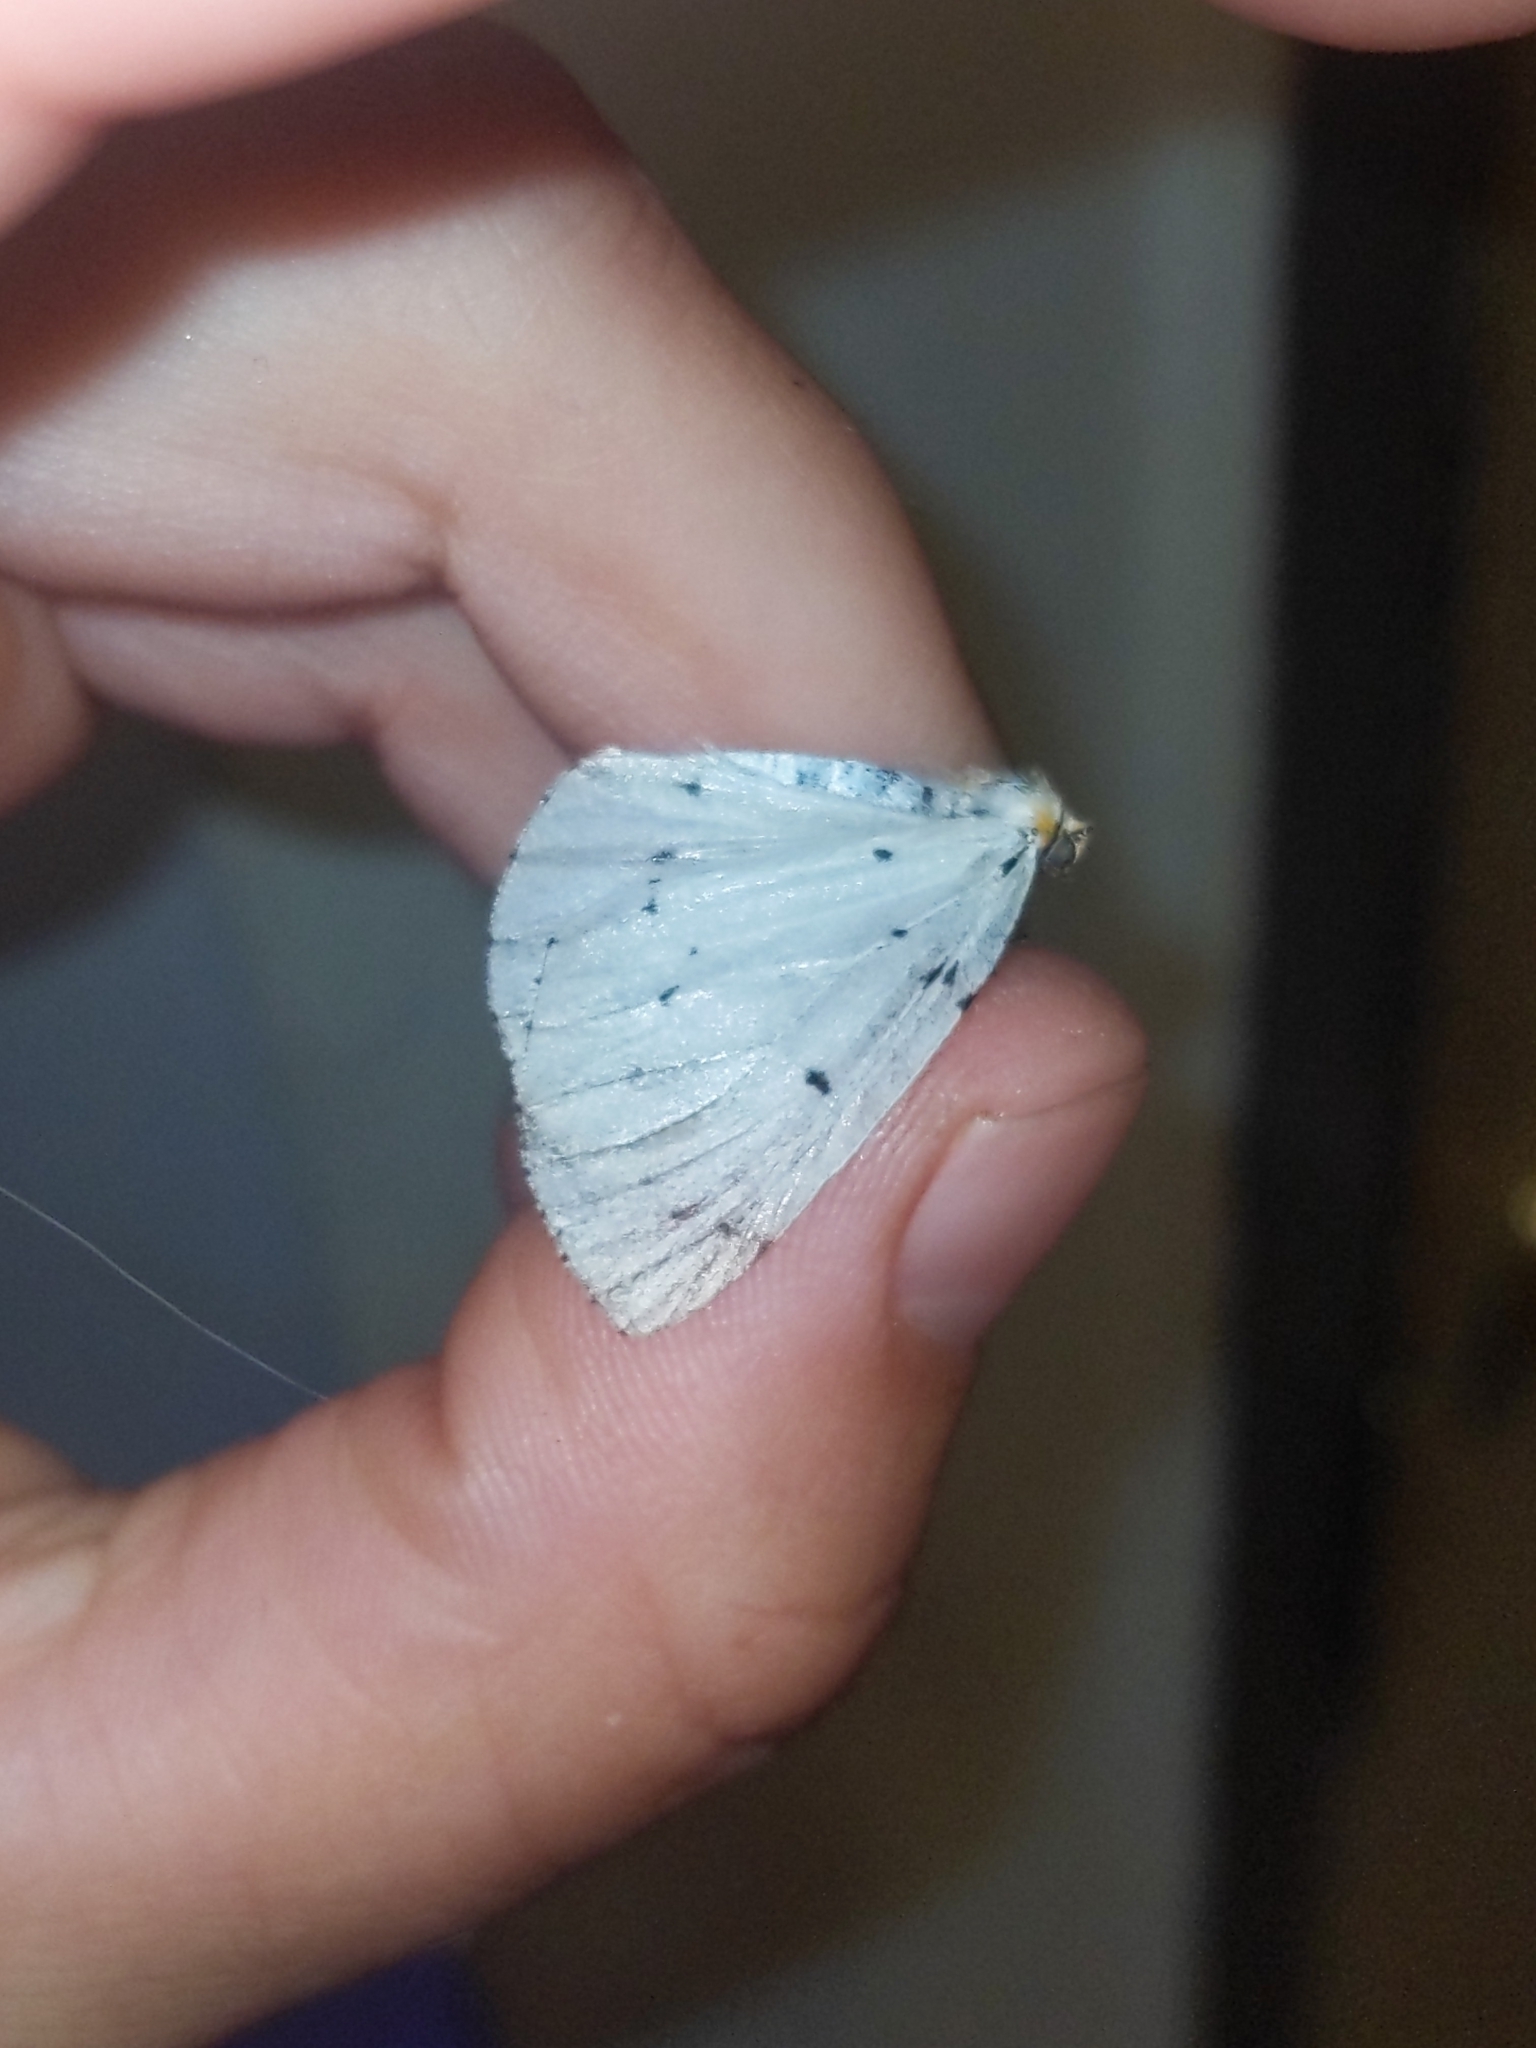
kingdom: Animalia
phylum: Arthropoda
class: Insecta
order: Lepidoptera
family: Geometridae
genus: Cingilia
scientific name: Cingilia catenaria
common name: Chain-dotted geometer
